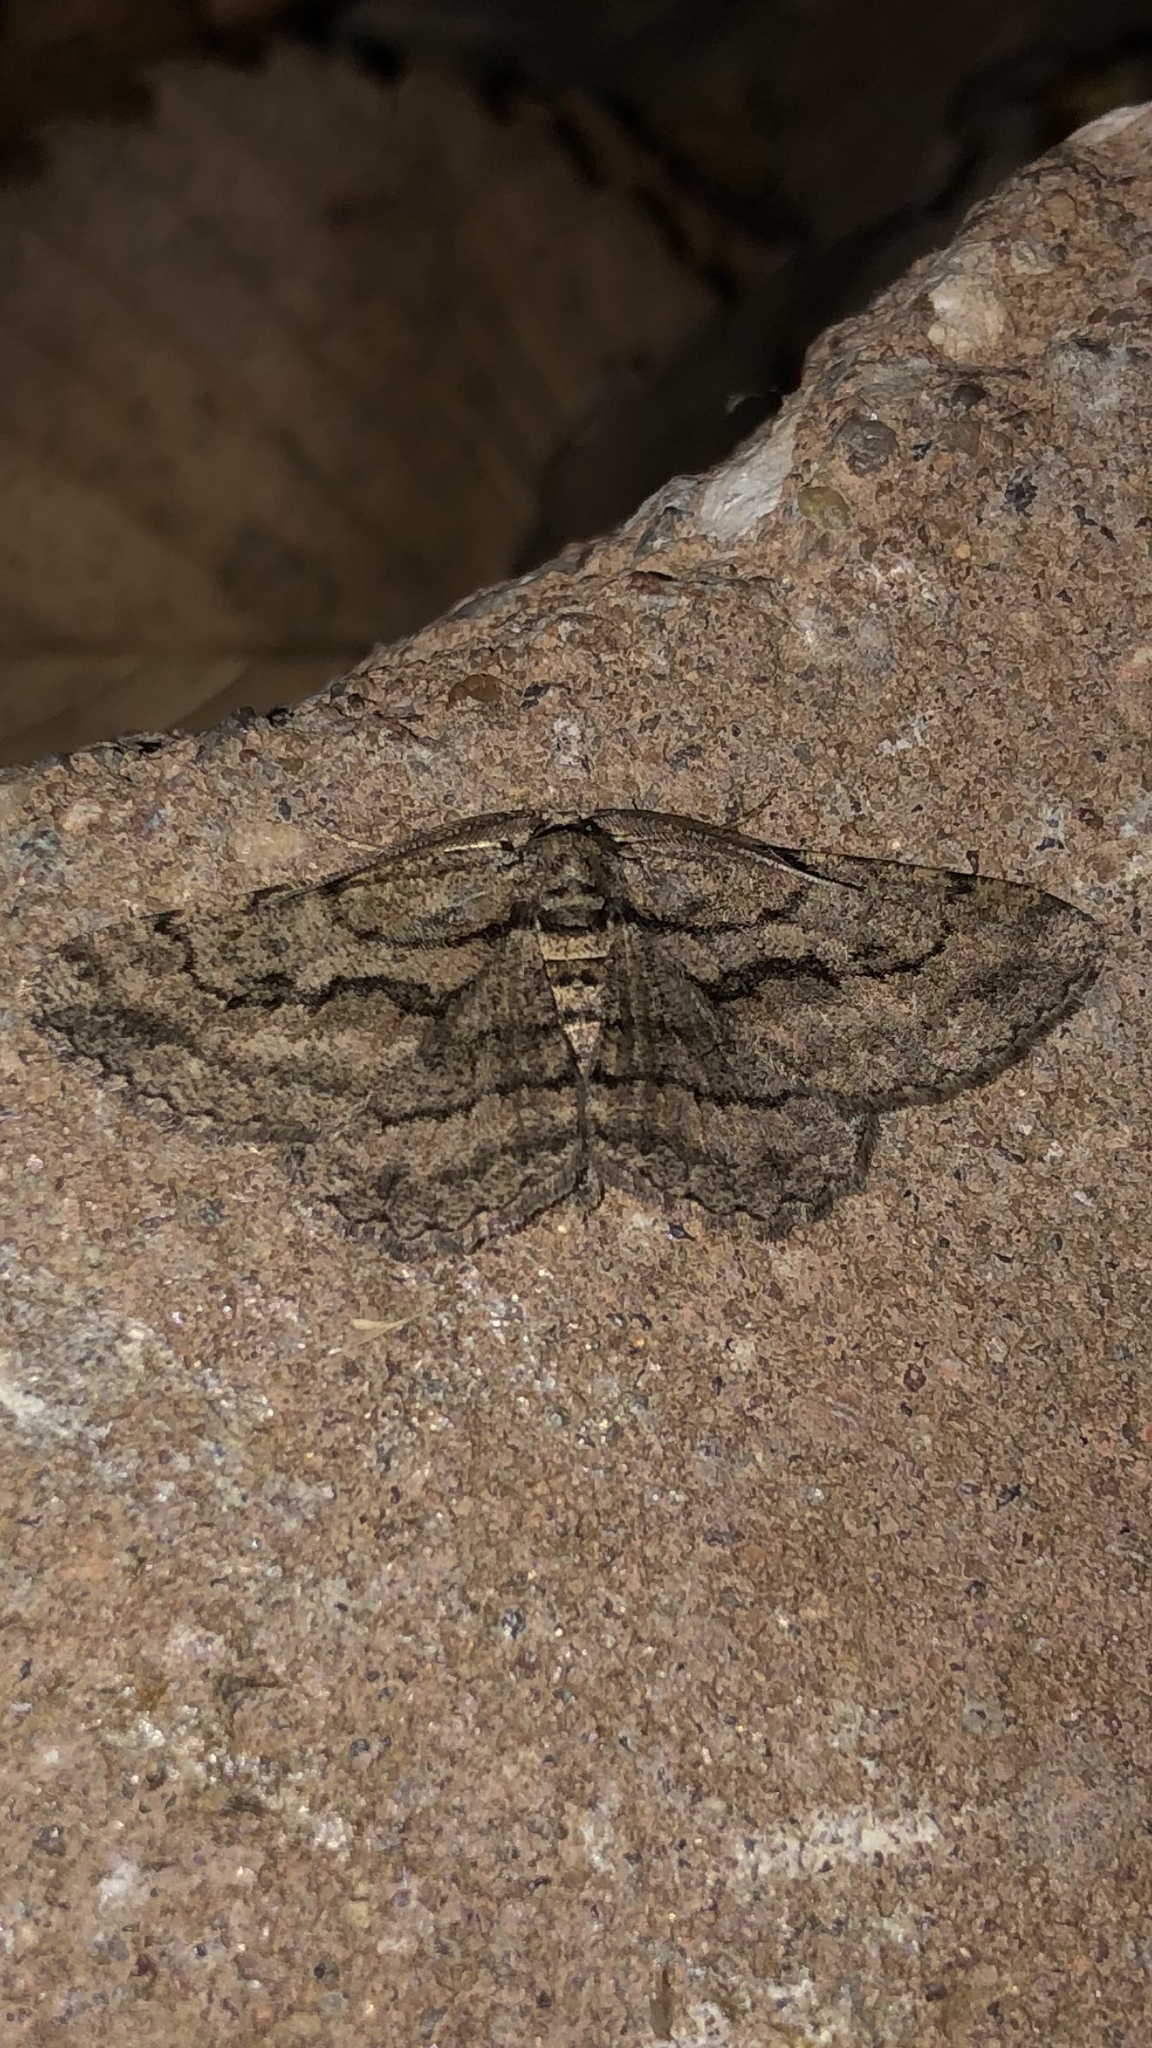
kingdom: Animalia
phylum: Arthropoda
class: Insecta
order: Lepidoptera
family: Geometridae
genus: Anavitrinella
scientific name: Anavitrinella pampinaria
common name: Common gray
